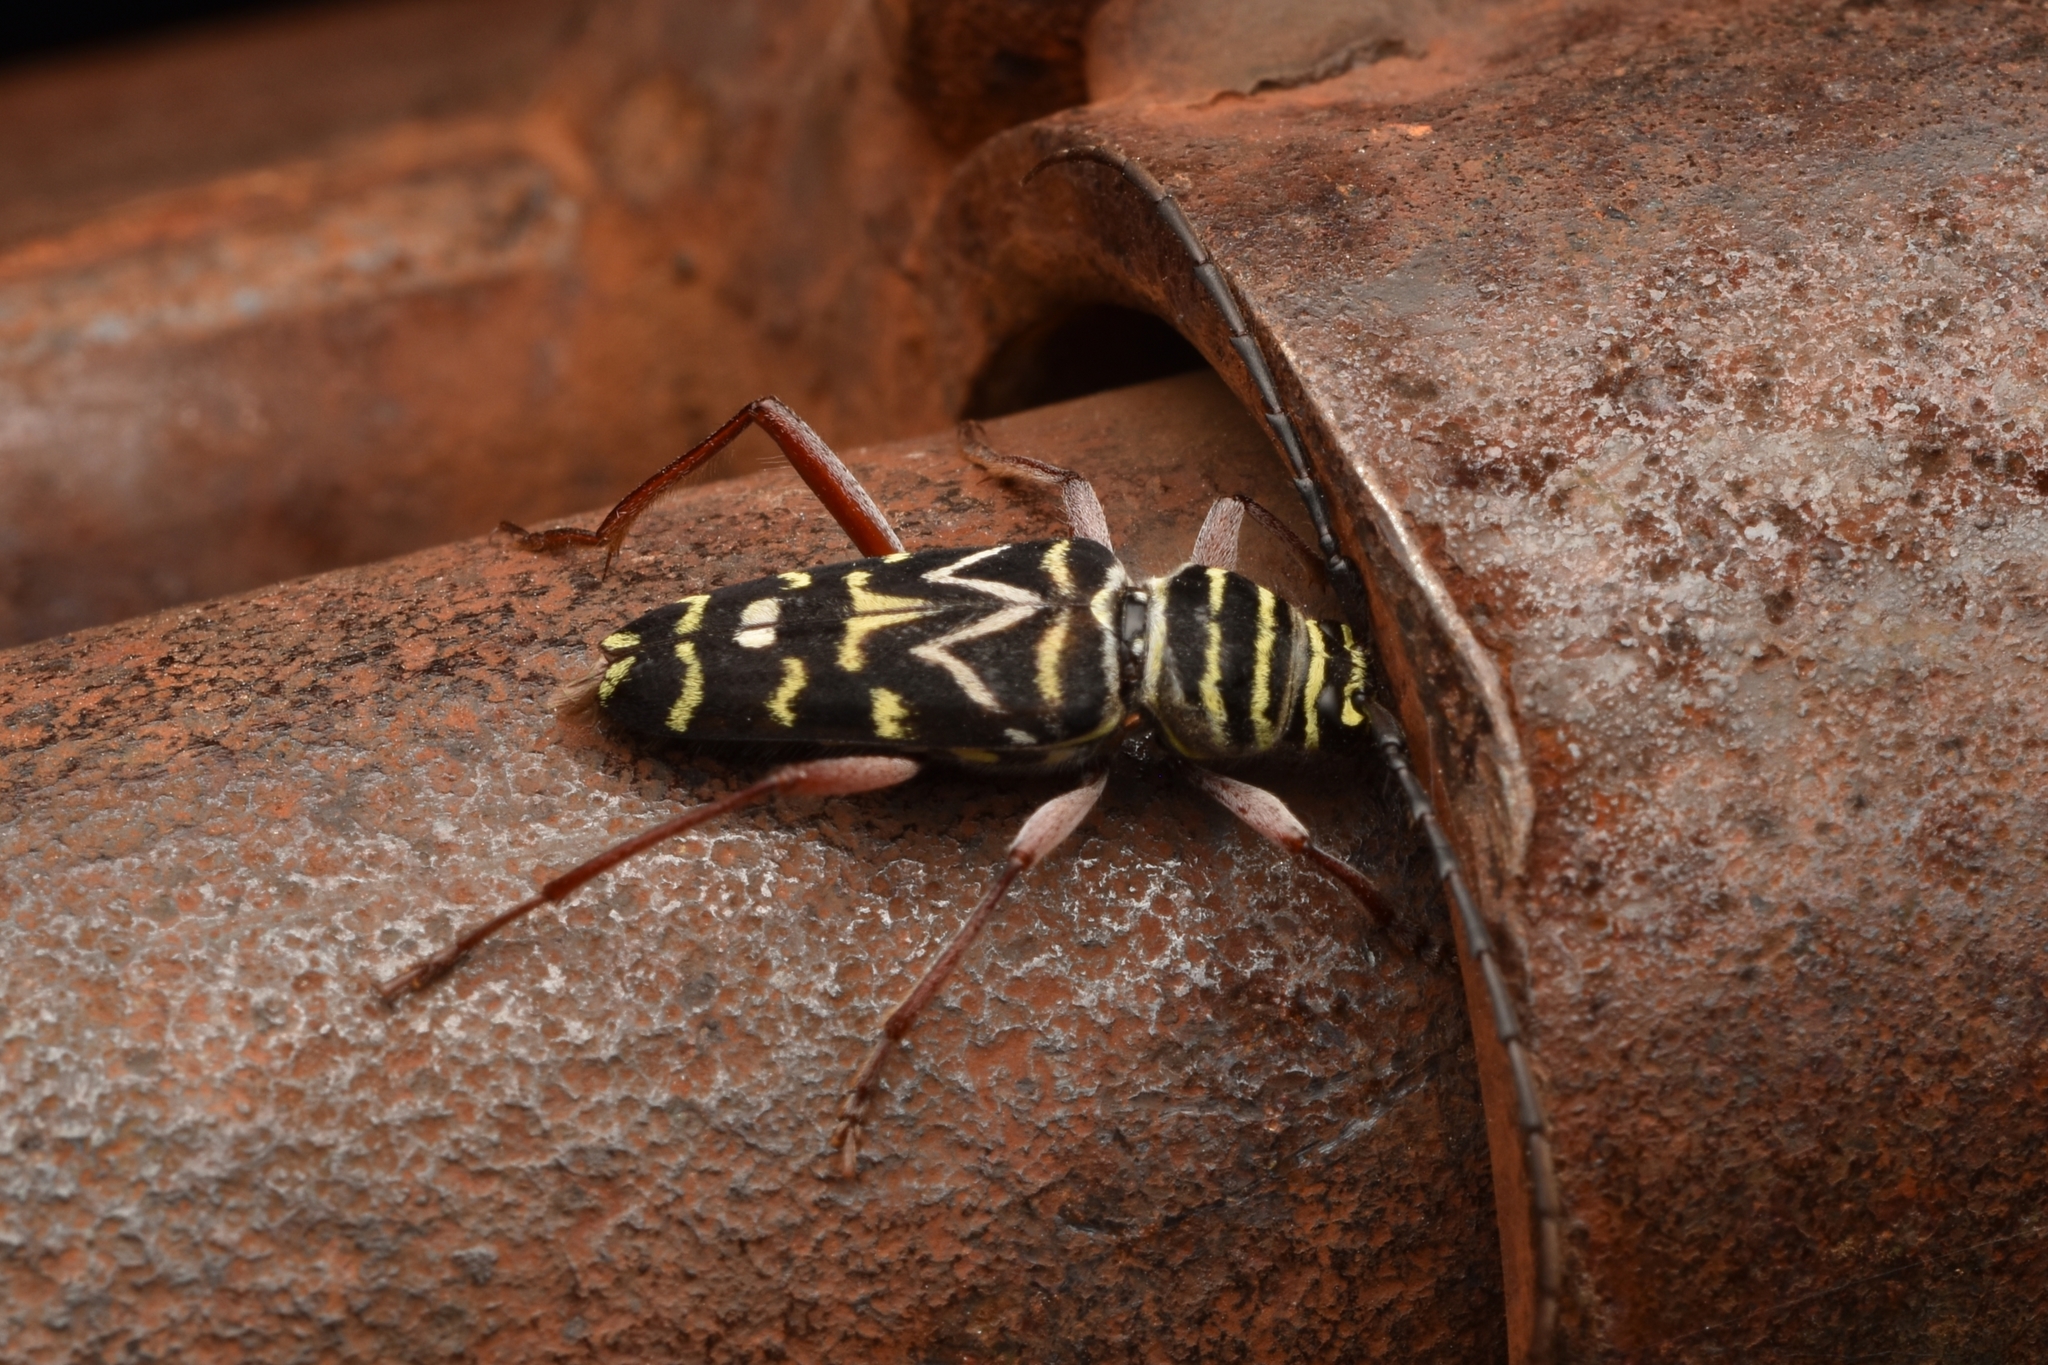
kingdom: Animalia
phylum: Arthropoda
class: Insecta
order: Coleoptera
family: Cerambycidae
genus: Megacyllene
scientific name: Megacyllene caryae
